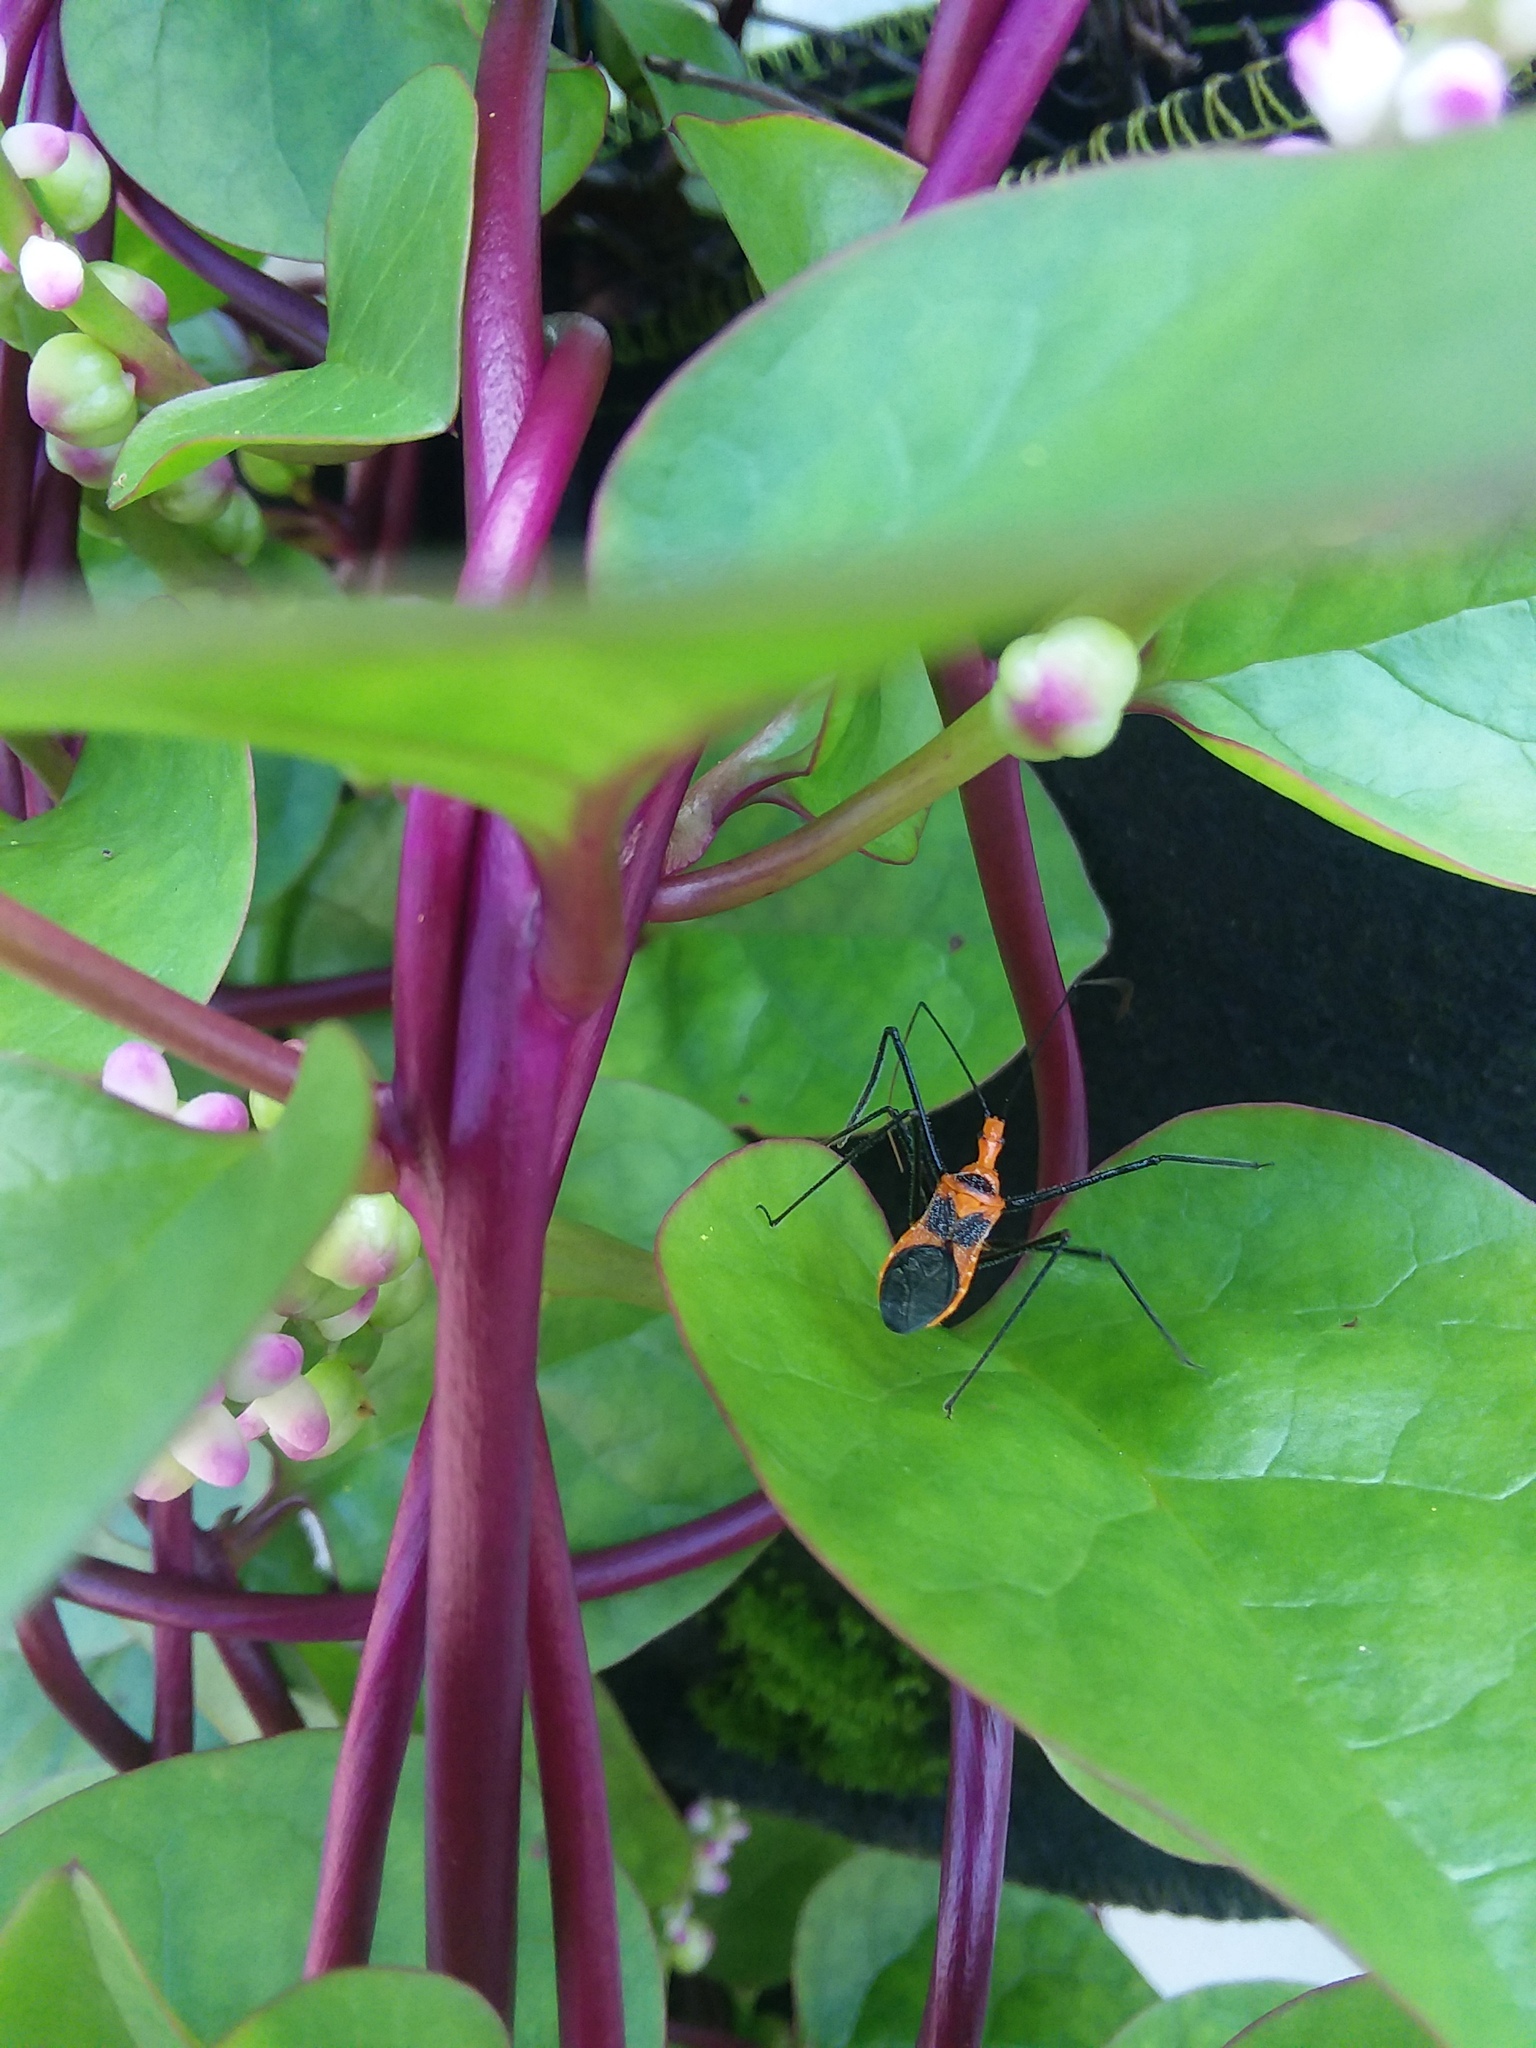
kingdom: Animalia
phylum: Arthropoda
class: Insecta
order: Hemiptera
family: Reduviidae
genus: Zelus
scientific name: Zelus longipes
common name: Milkweed assassin bug
